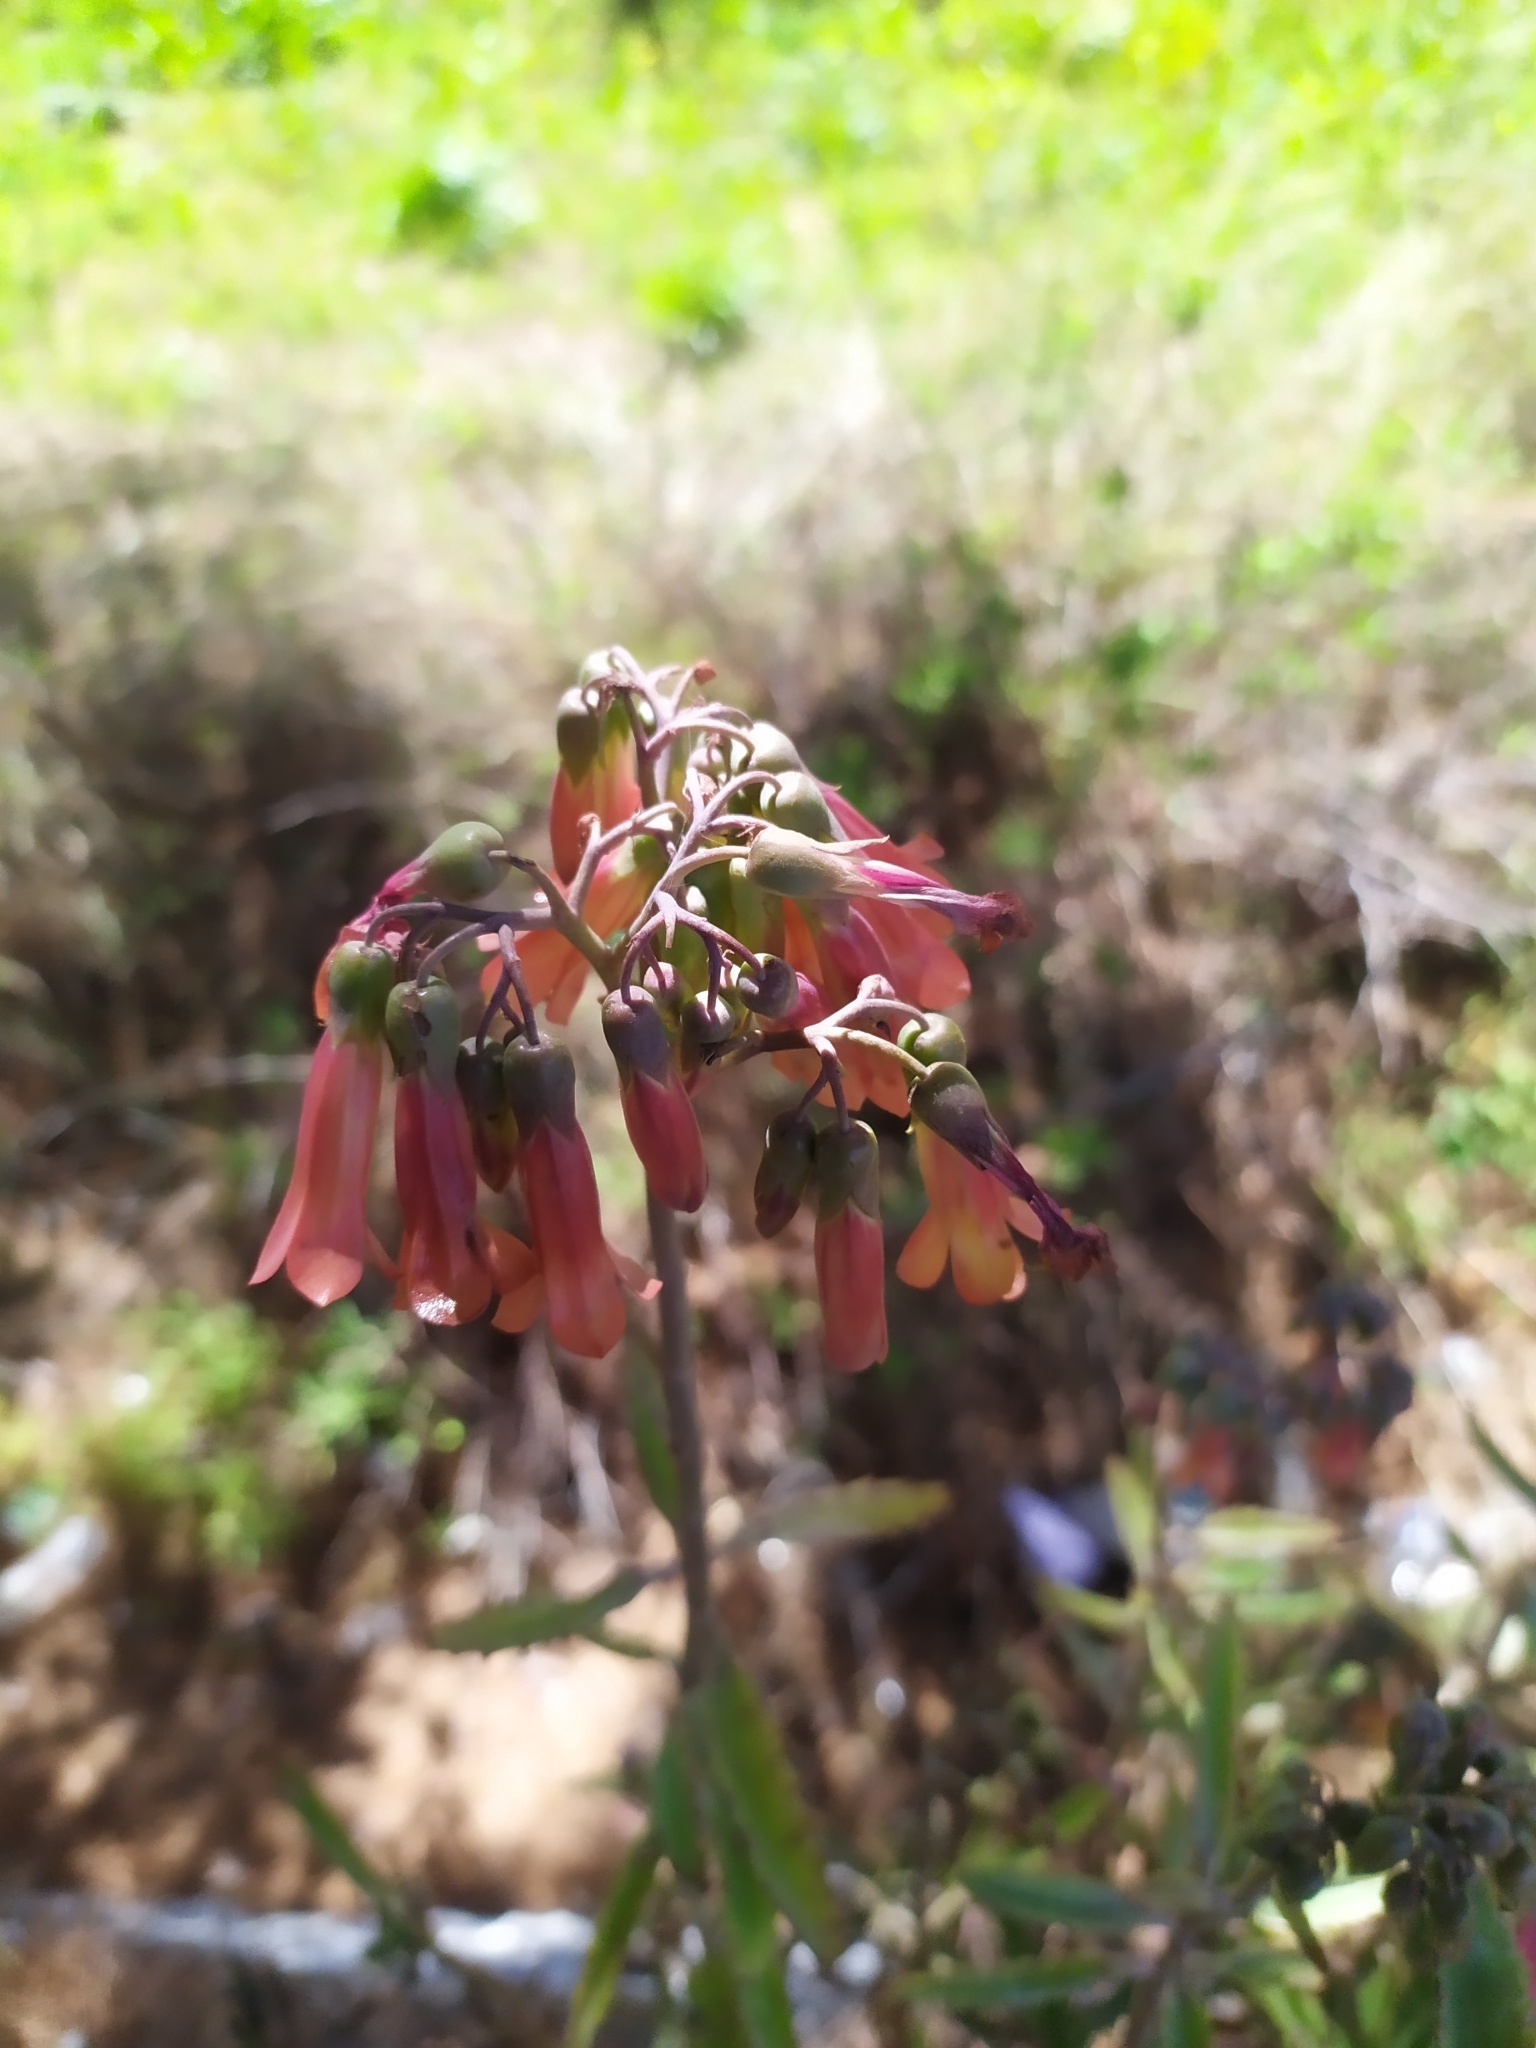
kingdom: Plantae
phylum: Tracheophyta
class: Magnoliopsida
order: Saxifragales
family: Crassulaceae
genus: Kalanchoe
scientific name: Kalanchoe houghtonii
